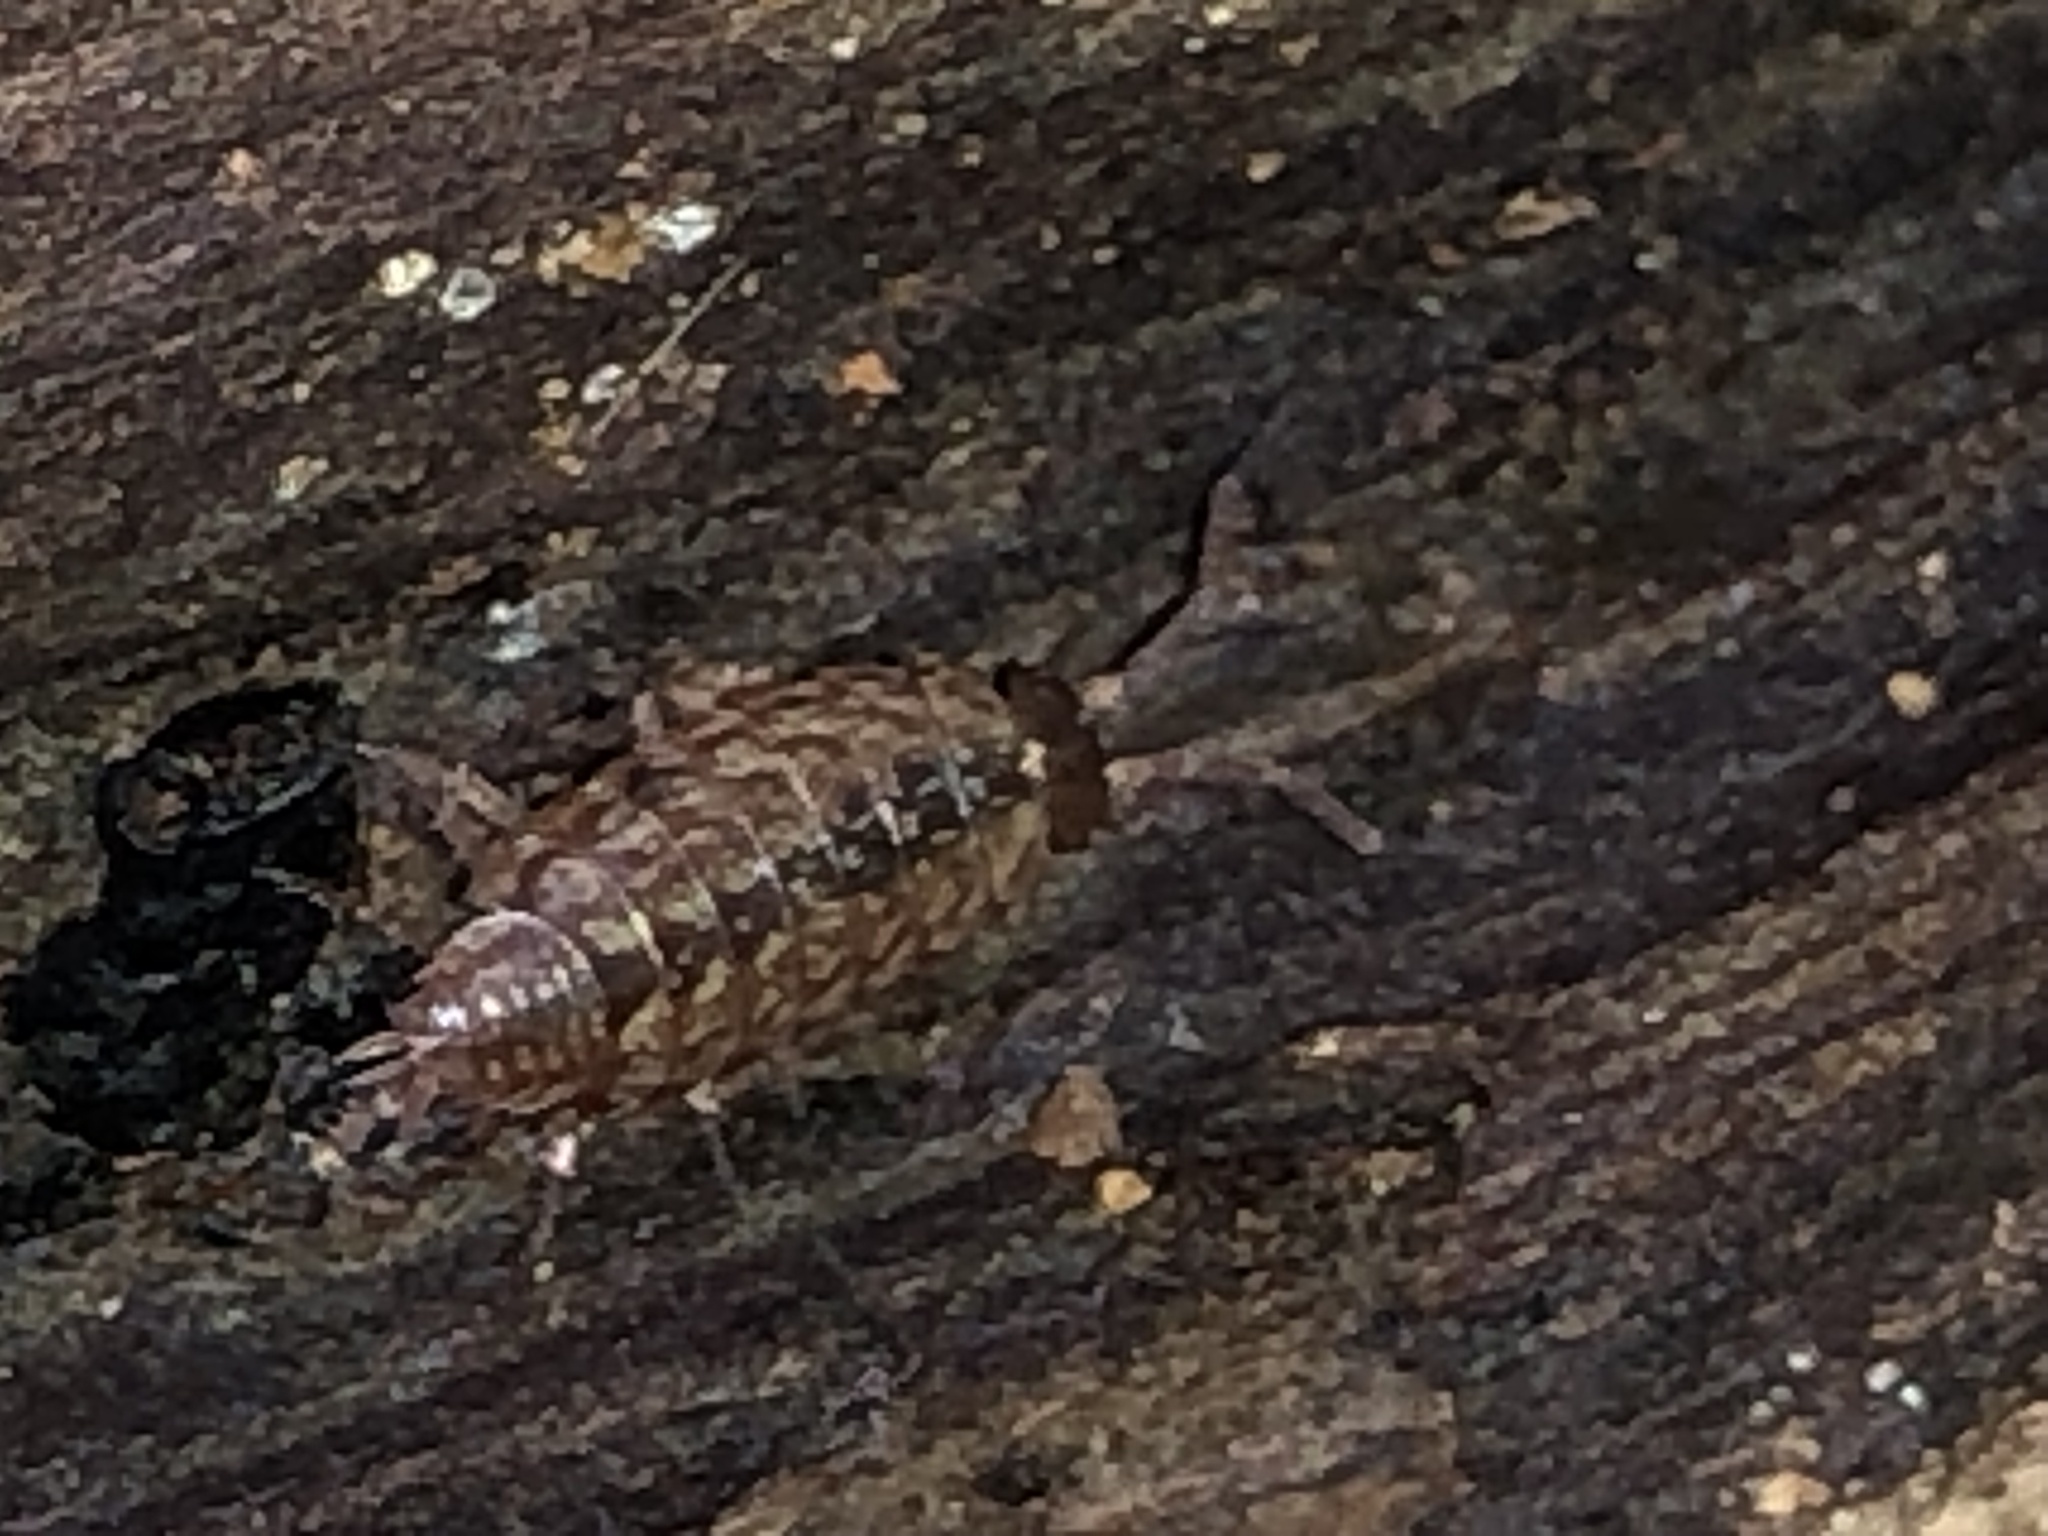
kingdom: Animalia
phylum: Arthropoda
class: Malacostraca
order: Isopoda
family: Philosciidae
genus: Philoscia
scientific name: Philoscia muscorum
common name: Common striped woodlouse
